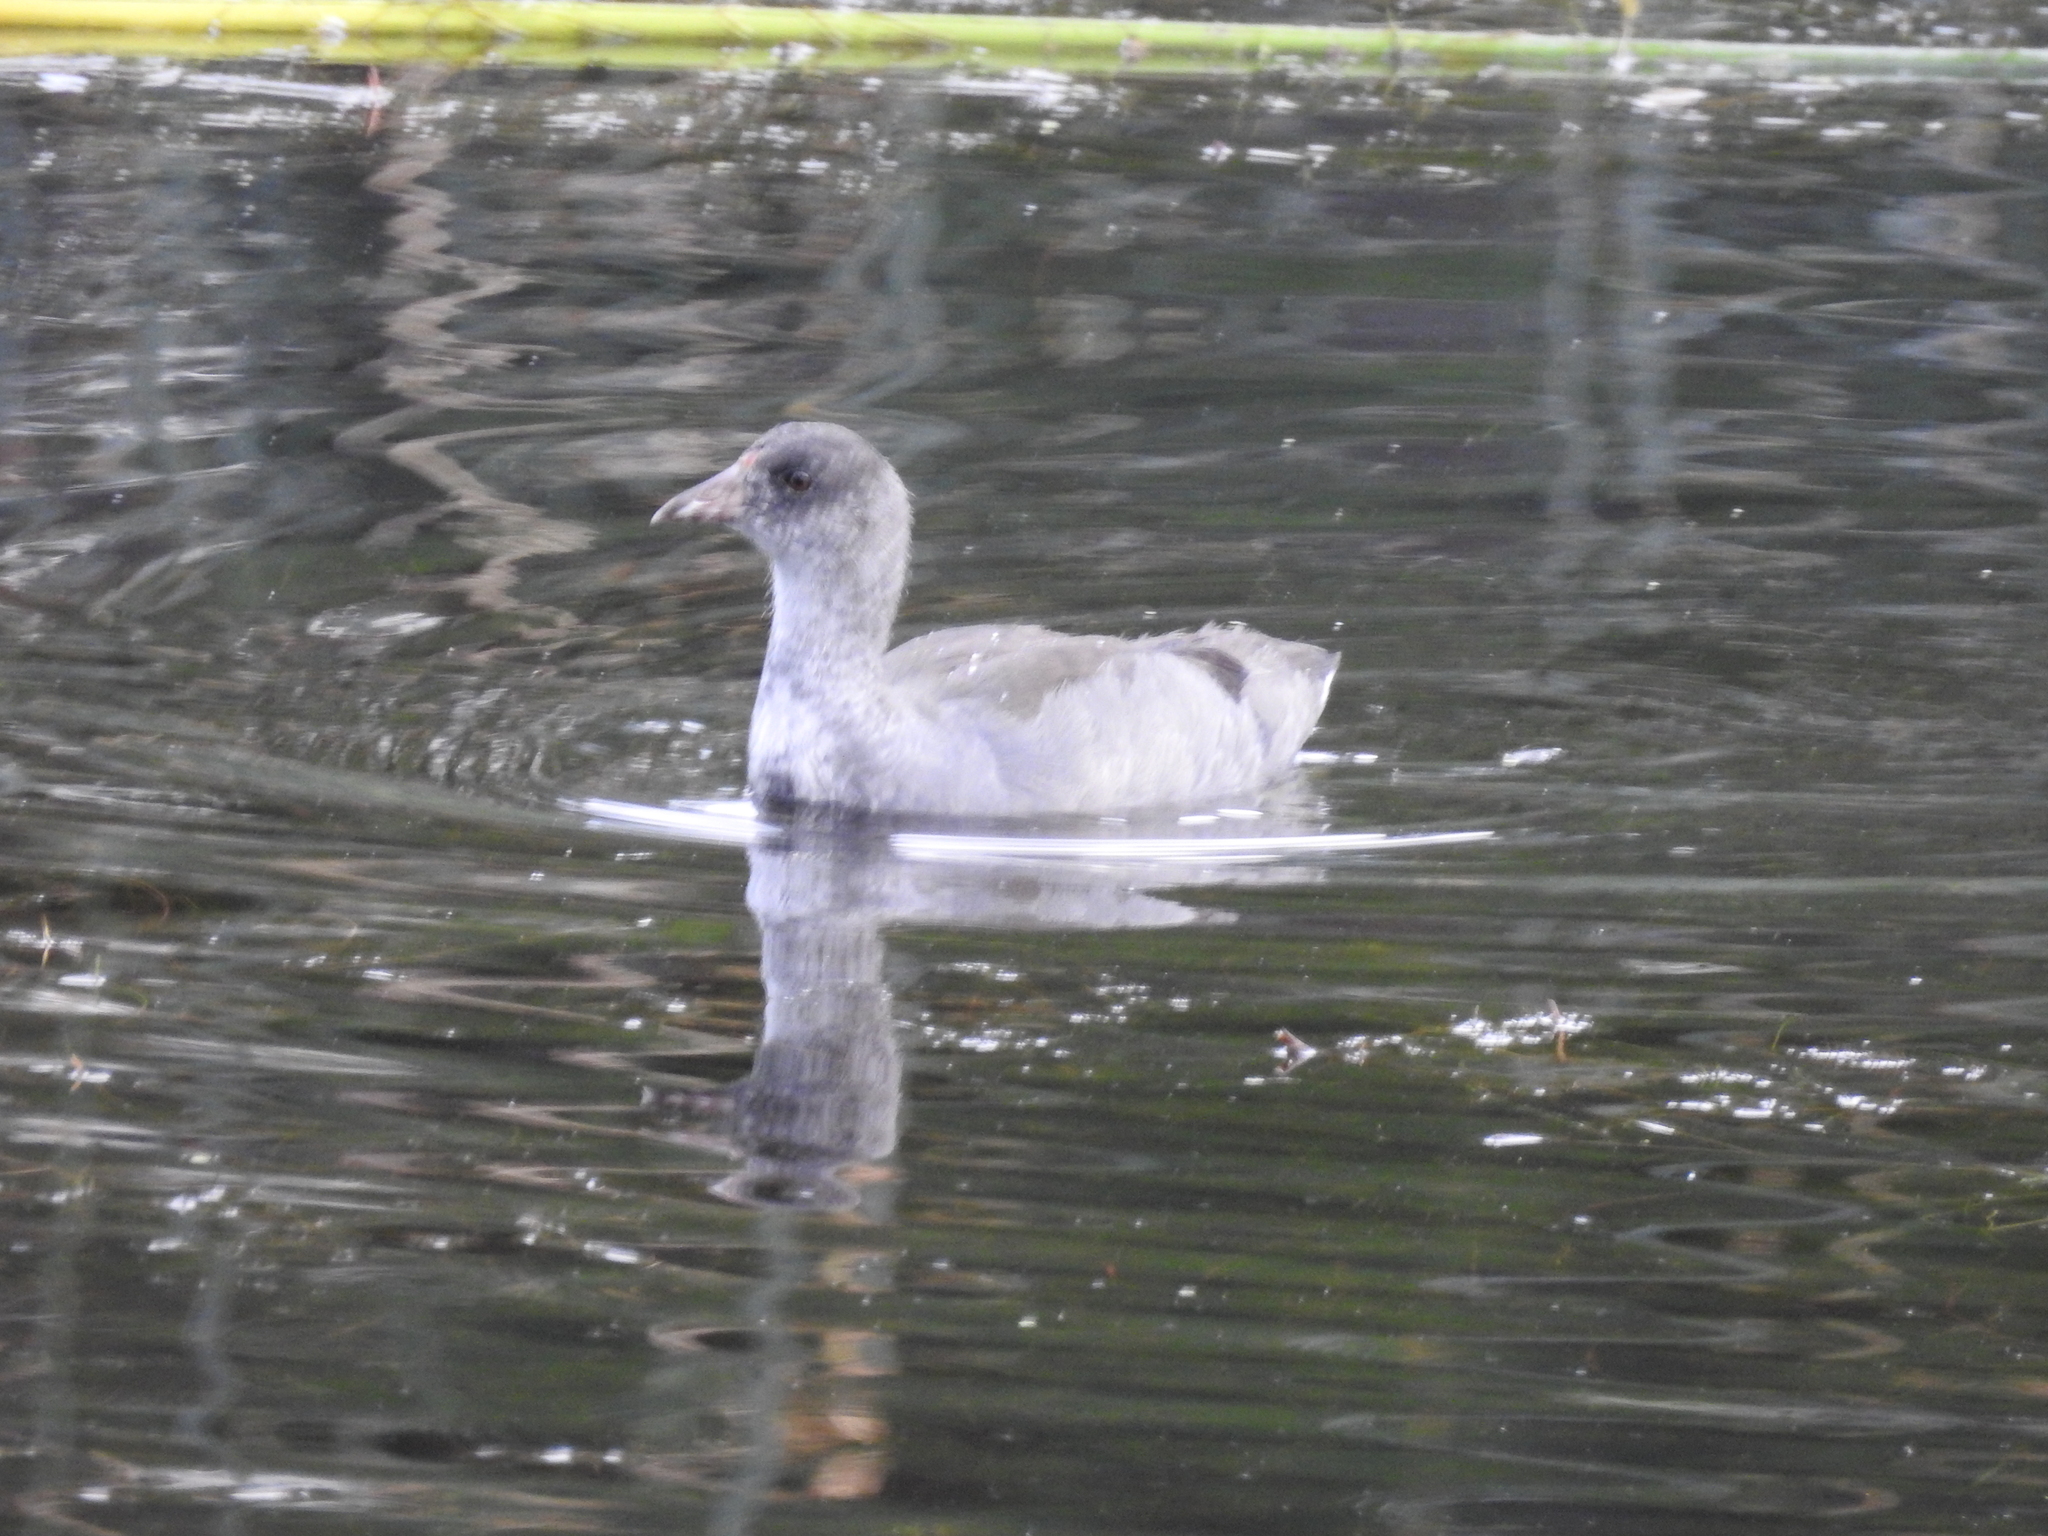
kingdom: Animalia
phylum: Chordata
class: Aves
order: Gruiformes
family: Rallidae
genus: Fulica
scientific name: Fulica americana
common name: American coot
